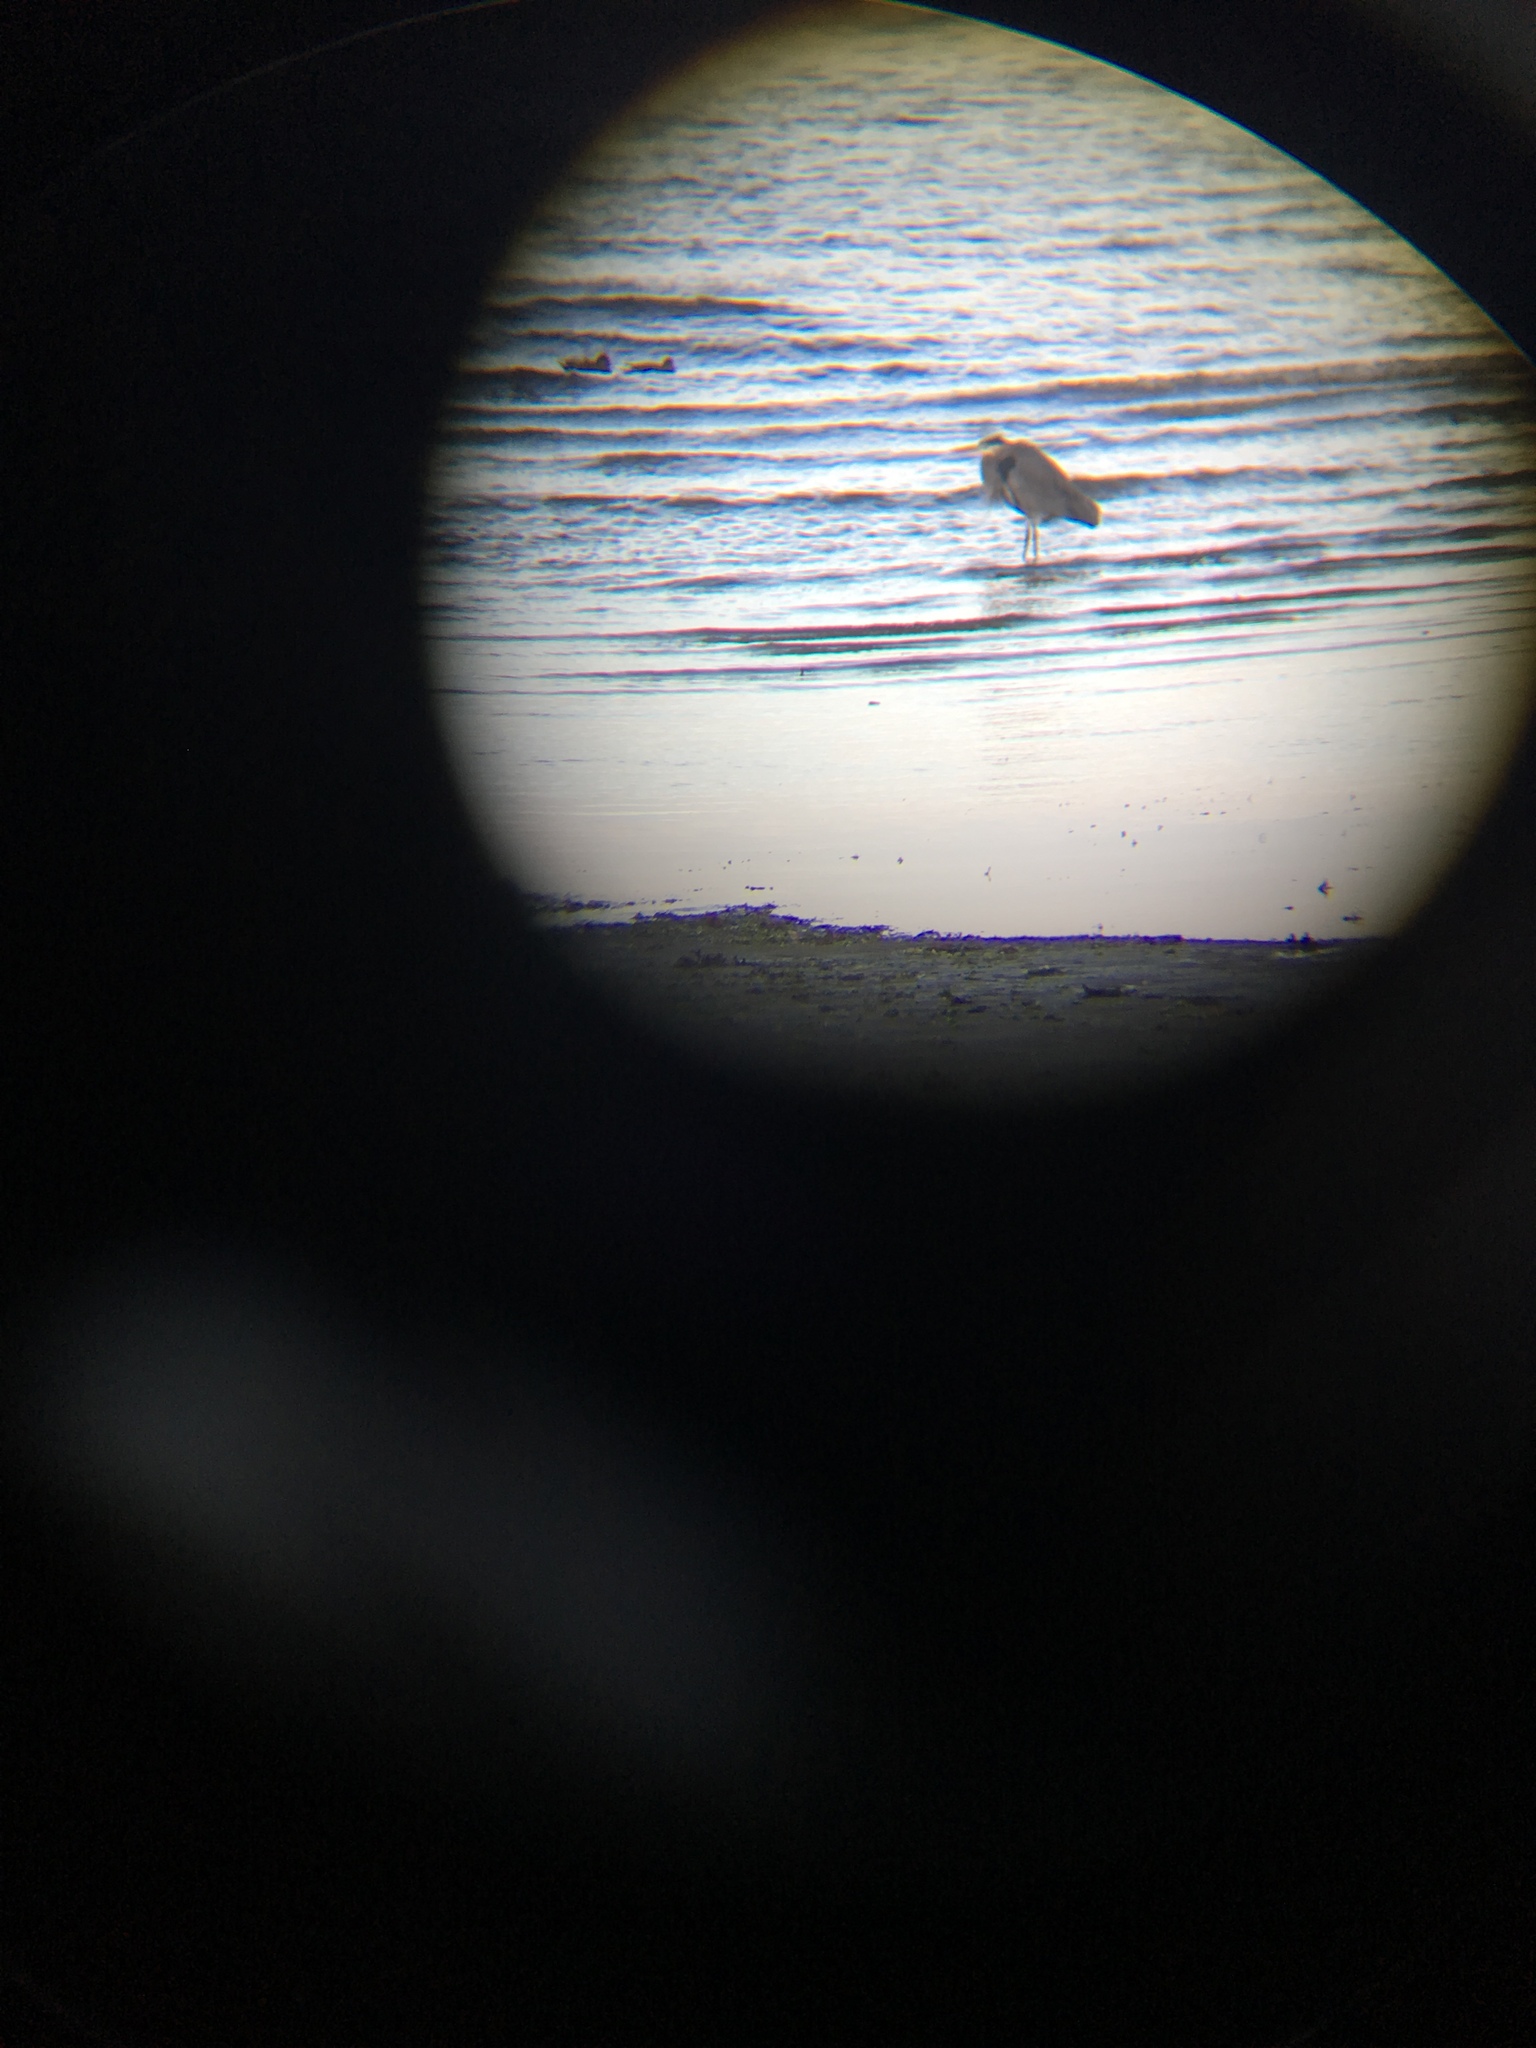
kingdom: Animalia
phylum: Chordata
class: Aves
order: Pelecaniformes
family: Ardeidae
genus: Ardea
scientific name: Ardea herodias
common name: Great blue heron
